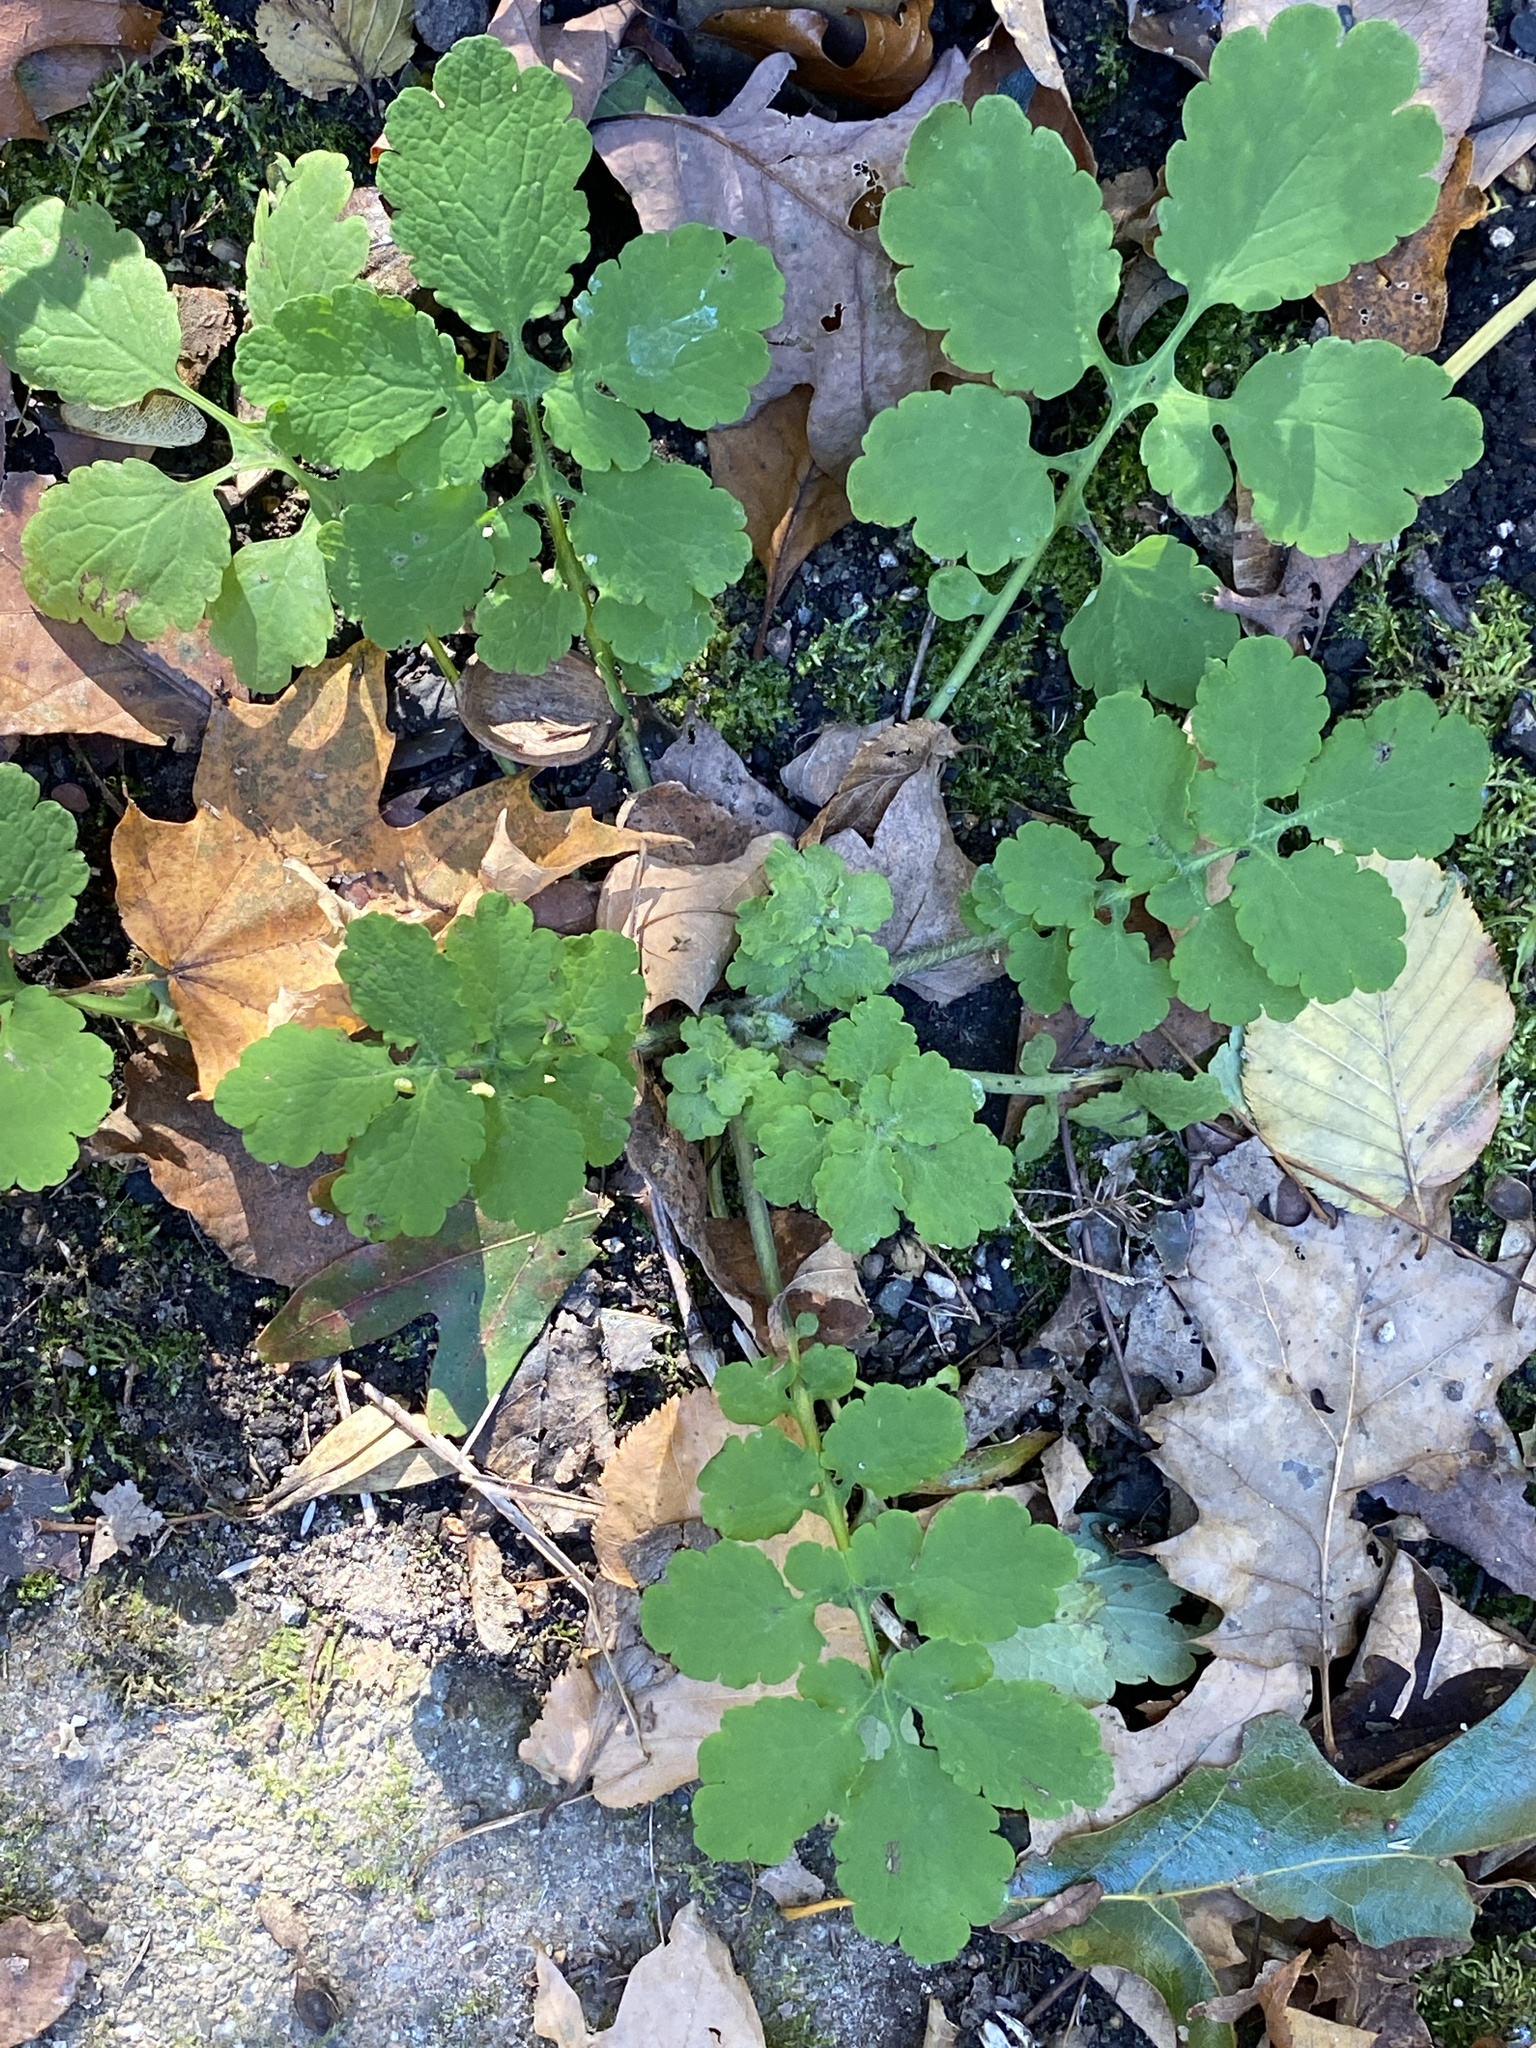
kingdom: Plantae
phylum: Tracheophyta
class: Magnoliopsida
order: Ranunculales
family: Papaveraceae
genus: Chelidonium
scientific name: Chelidonium majus
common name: Greater celandine
